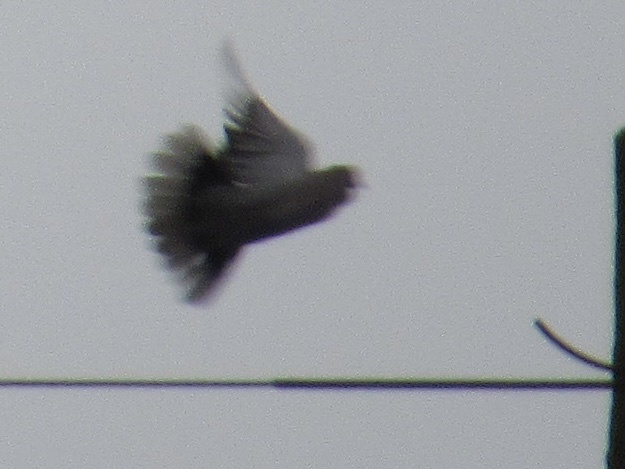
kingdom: Animalia
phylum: Chordata
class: Aves
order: Columbiformes
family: Columbidae
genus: Streptopelia
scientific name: Streptopelia decaocto
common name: Eurasian collared dove
